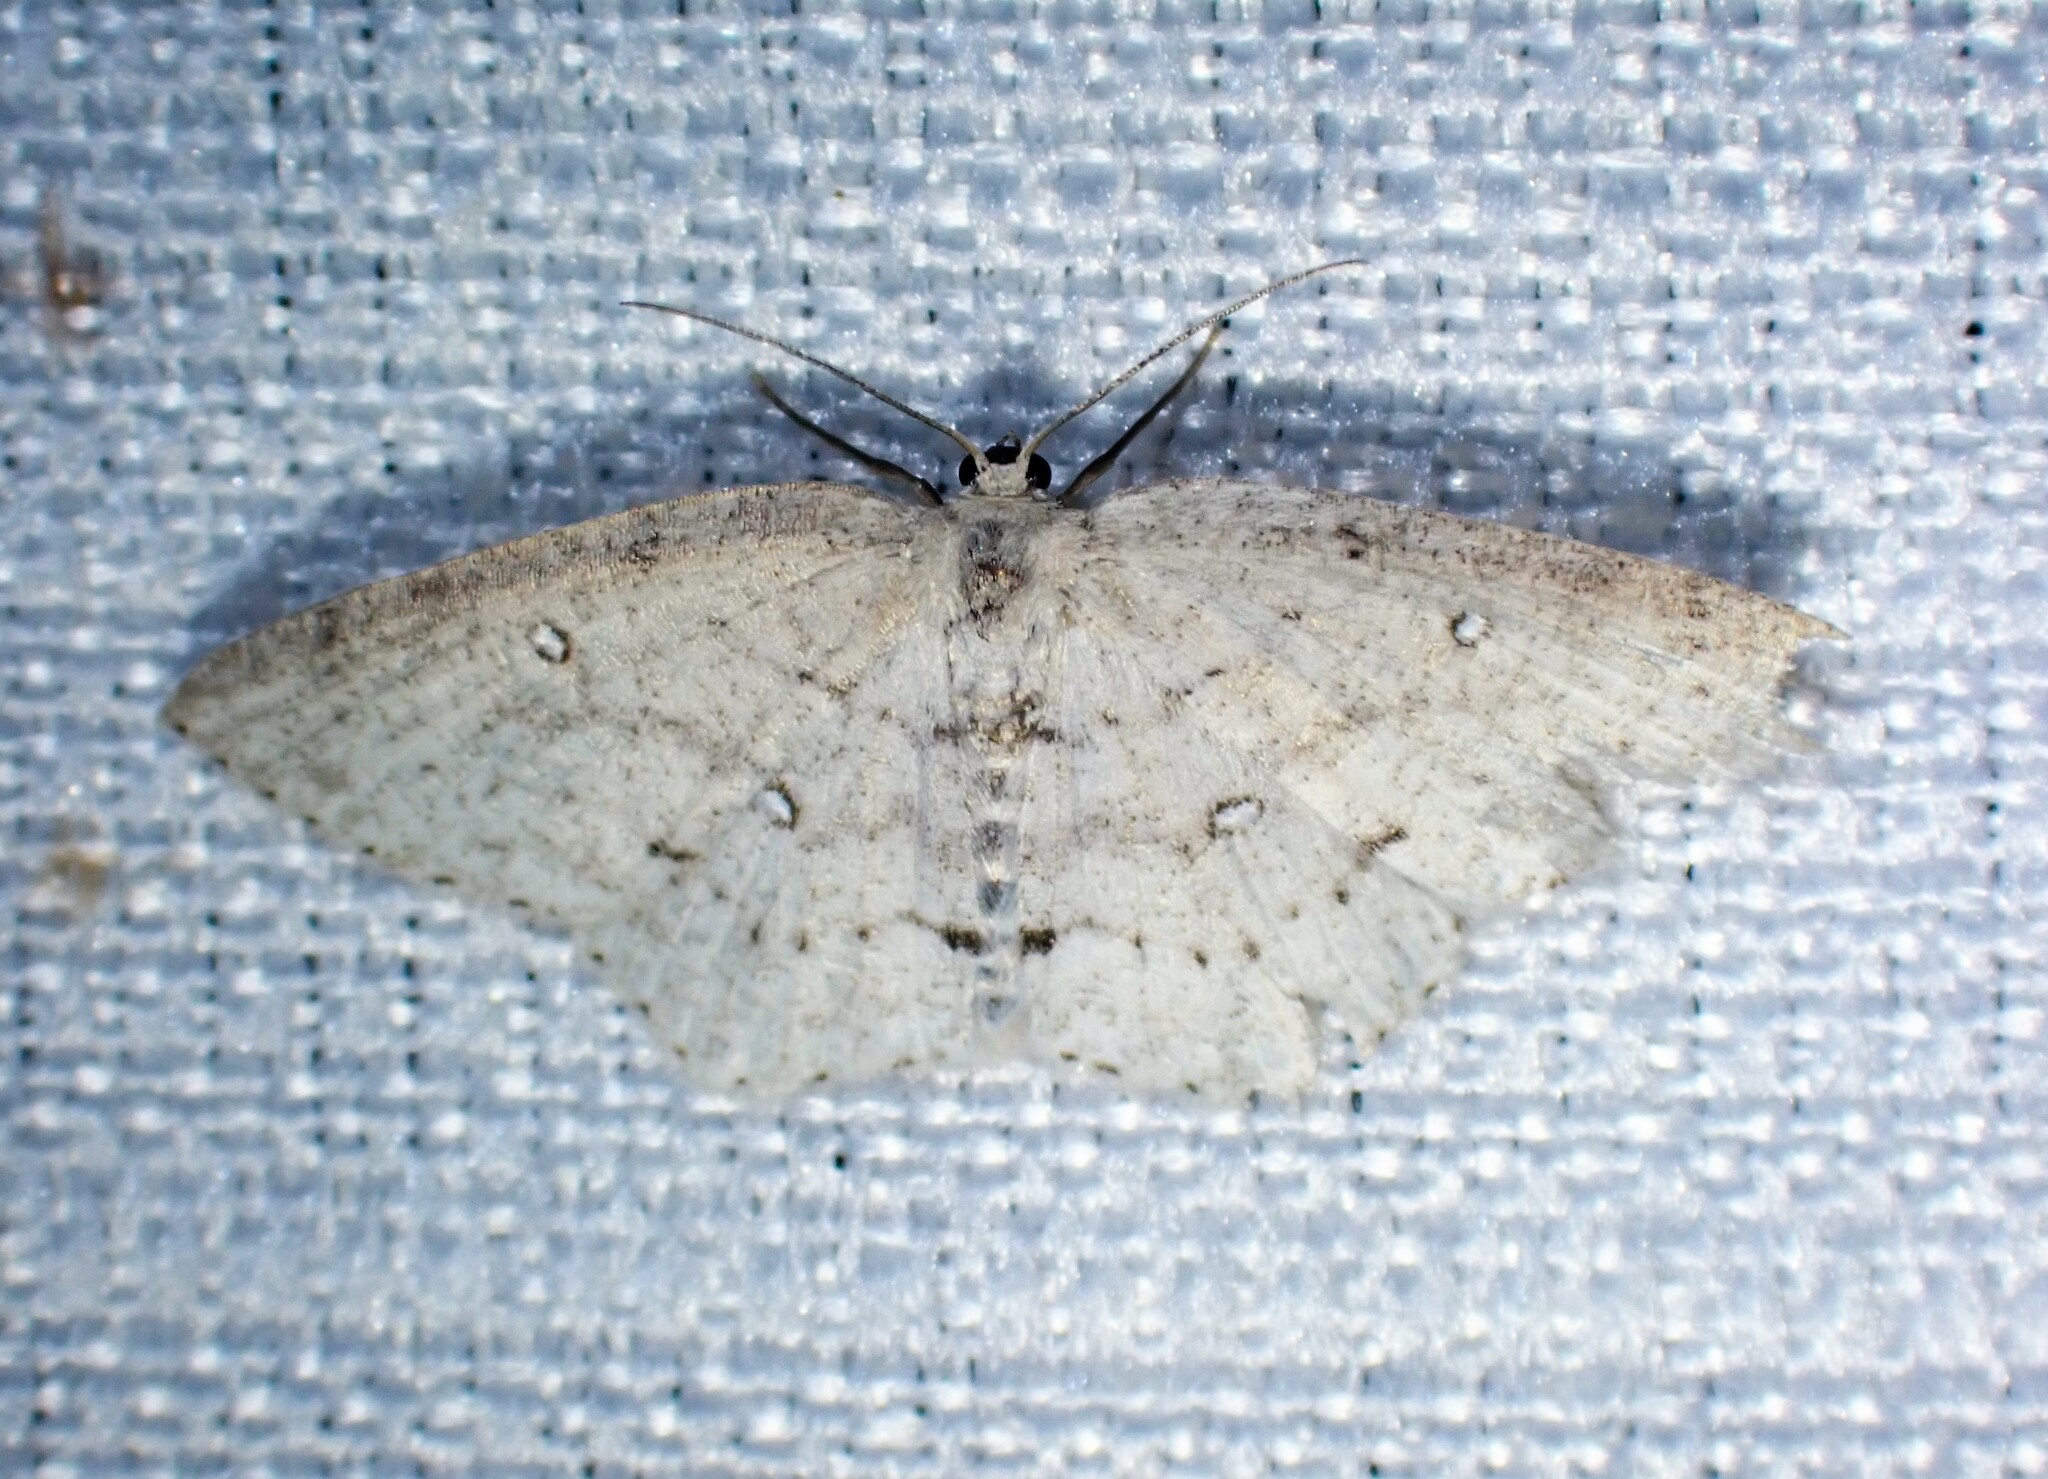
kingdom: Animalia
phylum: Arthropoda
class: Insecta
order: Lepidoptera
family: Geometridae
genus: Cyclophora
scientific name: Cyclophora pendulinaria
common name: Sweet fern geometer
